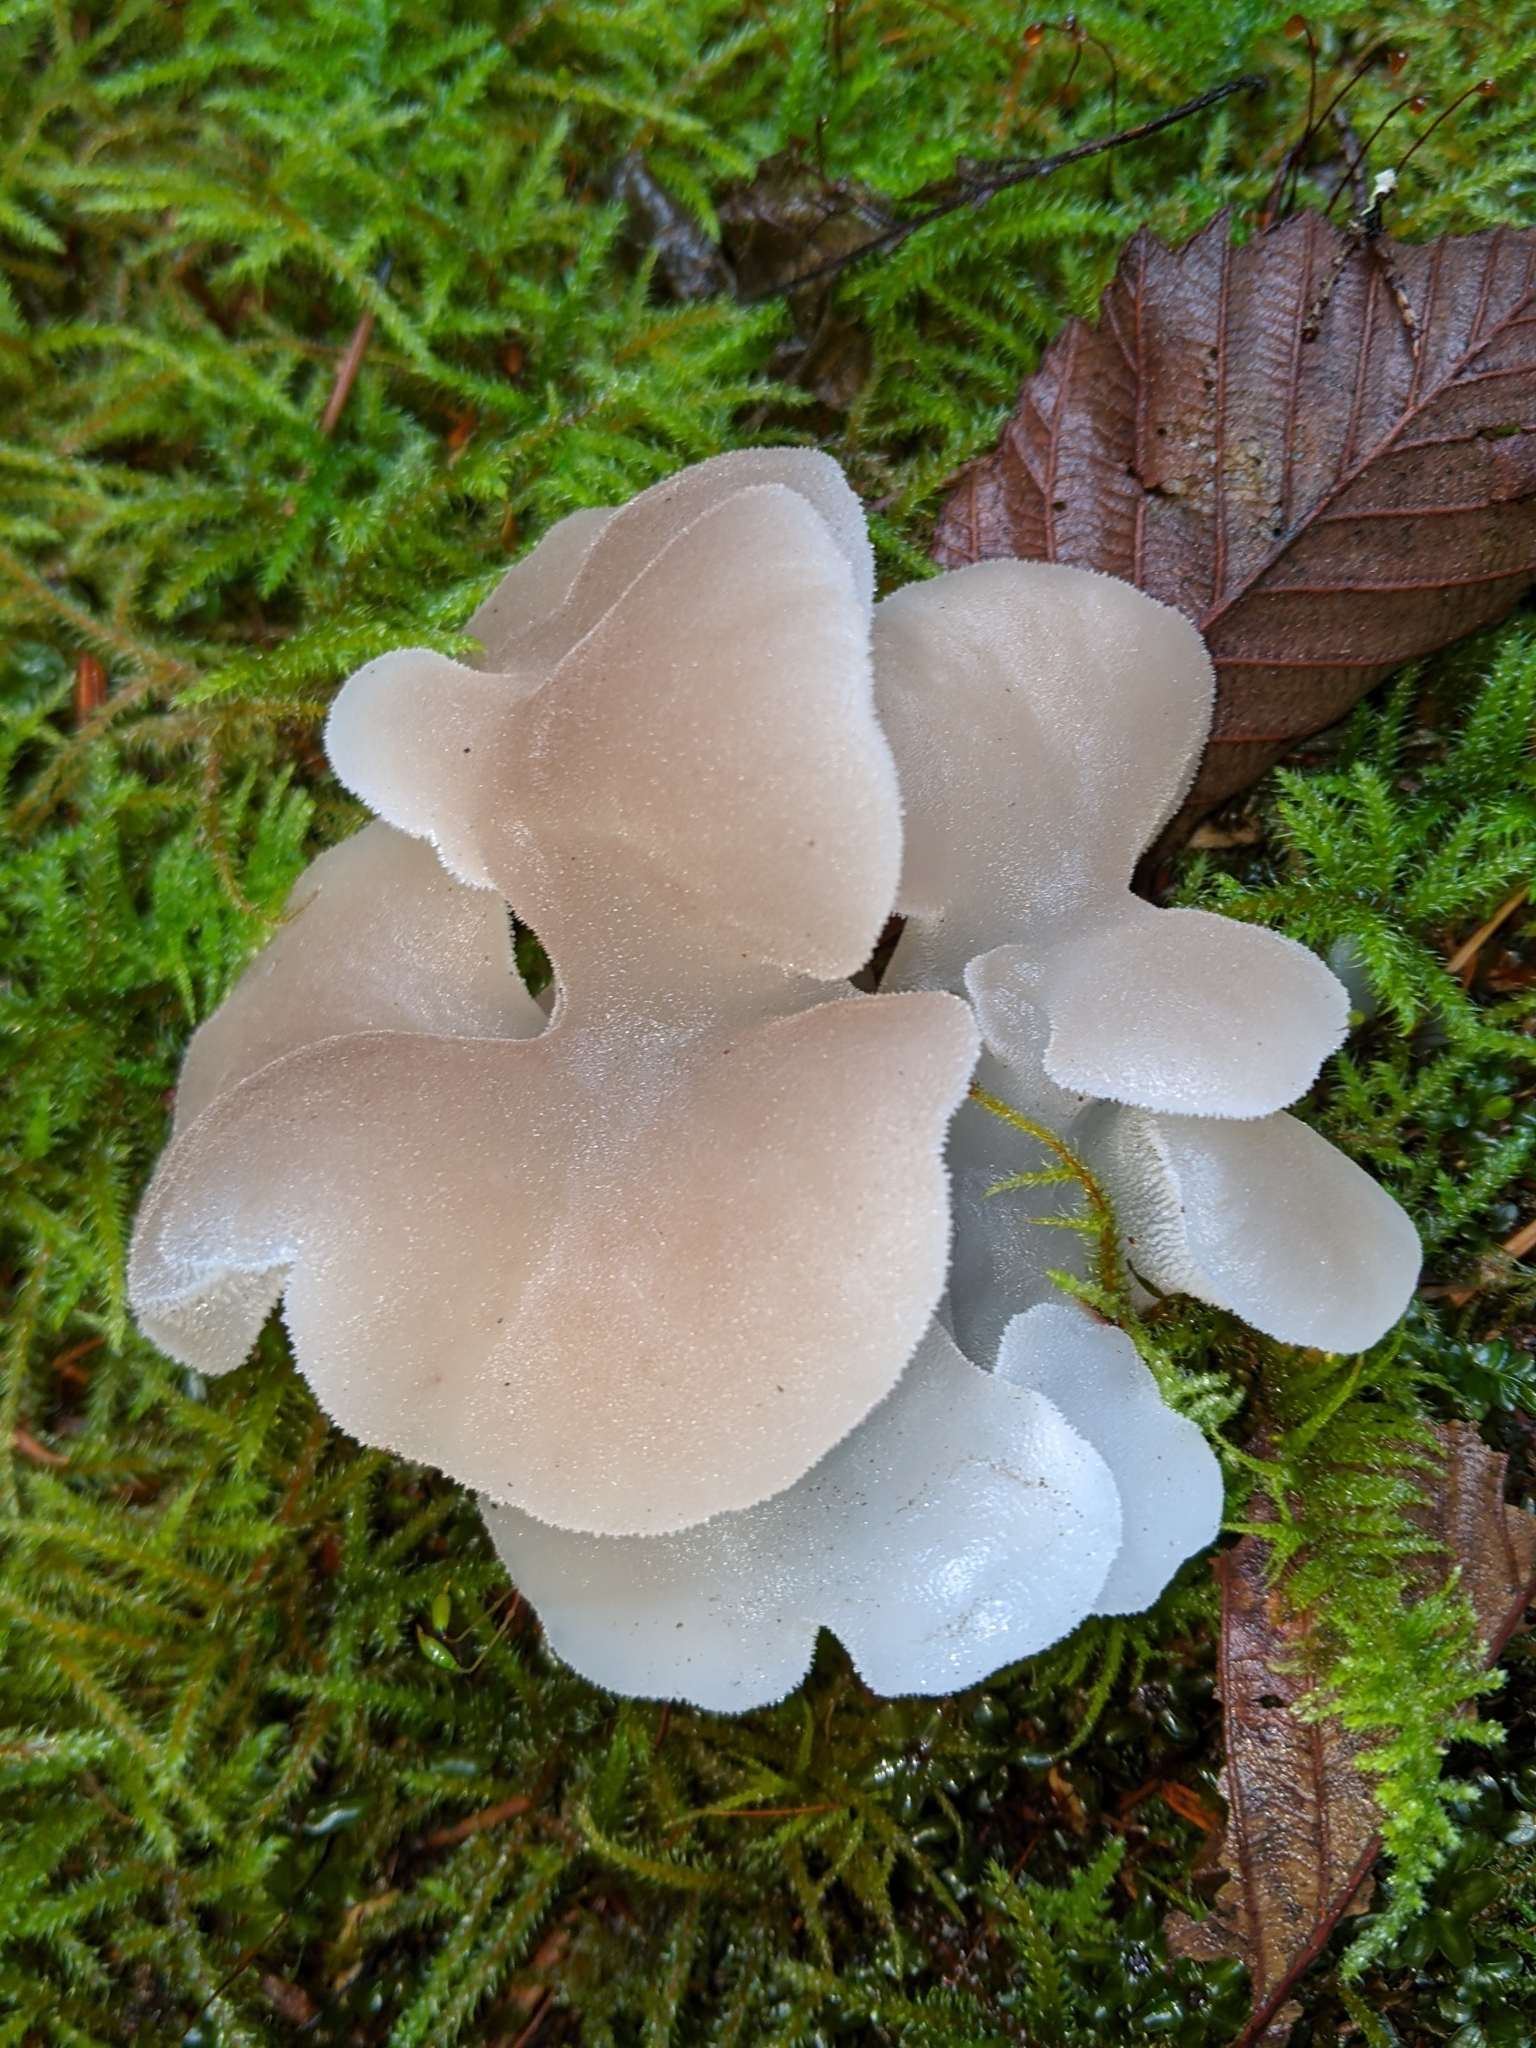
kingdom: Fungi
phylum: Basidiomycota
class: Agaricomycetes
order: Auriculariales
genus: Pseudohydnum
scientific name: Pseudohydnum gelatinosum
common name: Jelly tongue
